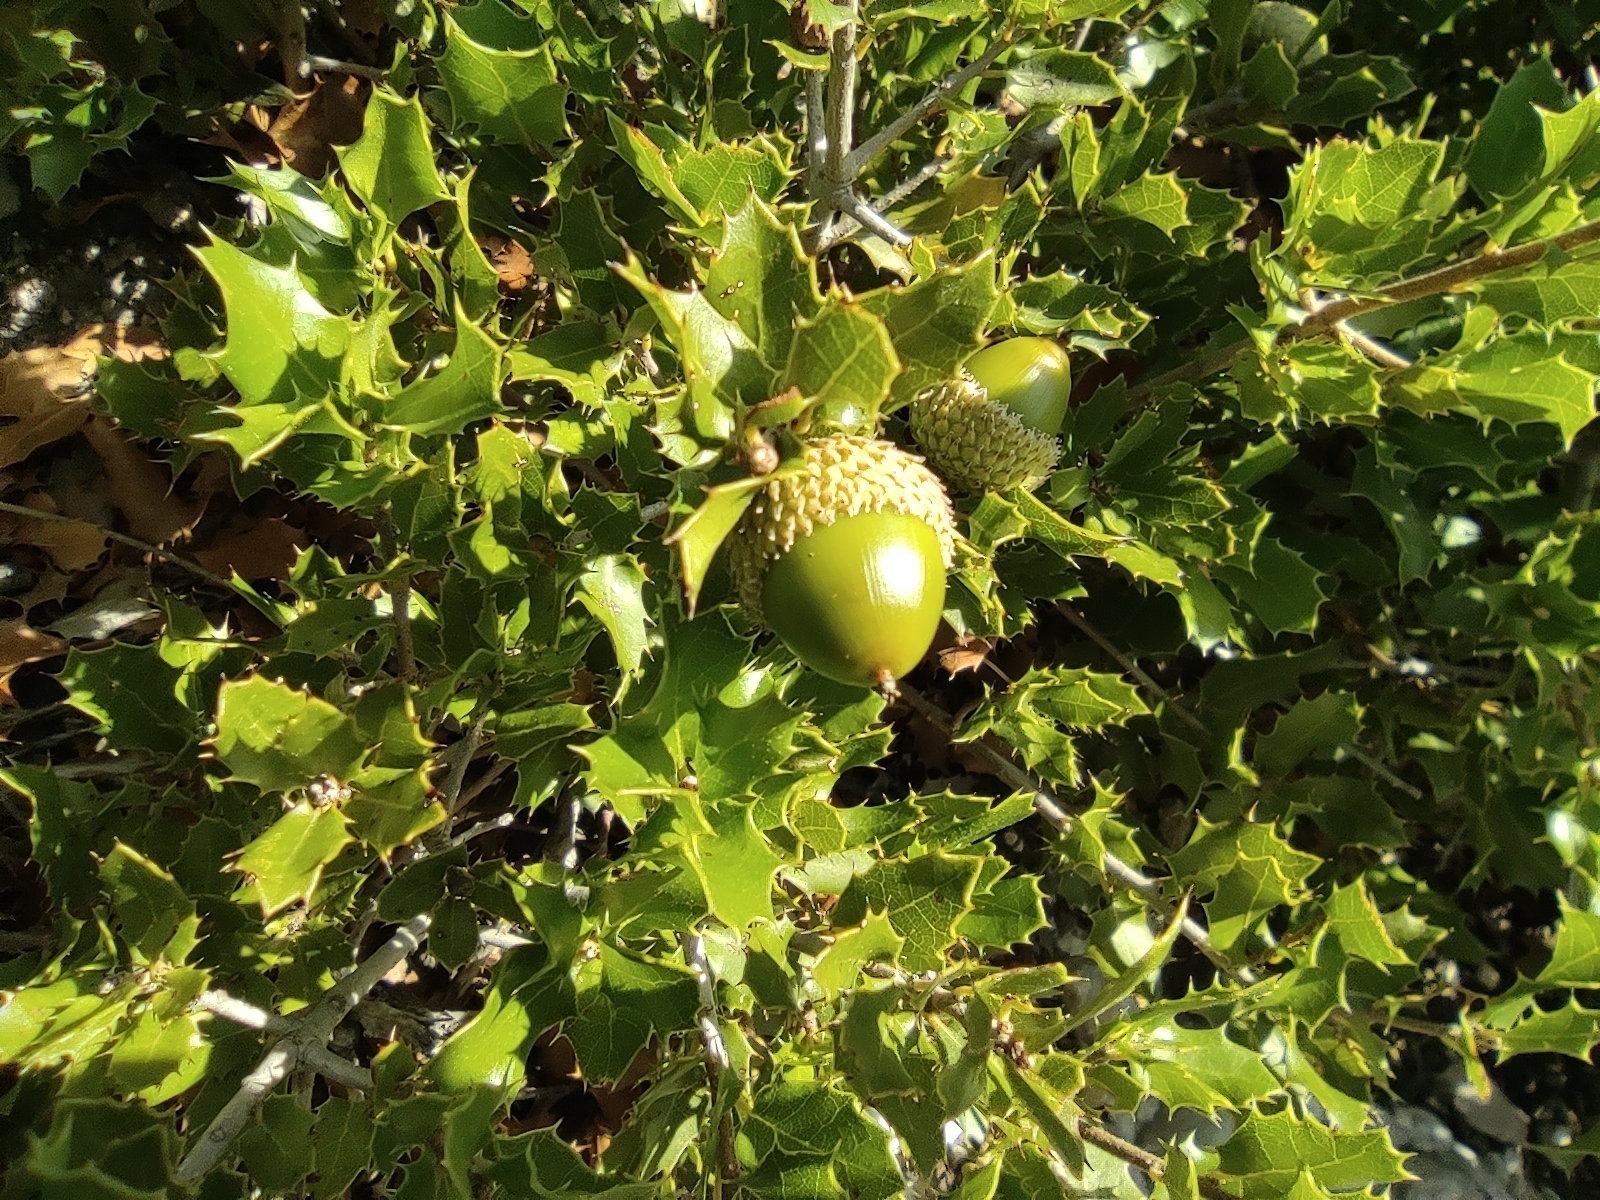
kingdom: Plantae
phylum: Tracheophyta
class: Magnoliopsida
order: Fagales
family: Fagaceae
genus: Quercus
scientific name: Quercus coccifera
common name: Kermes oak
